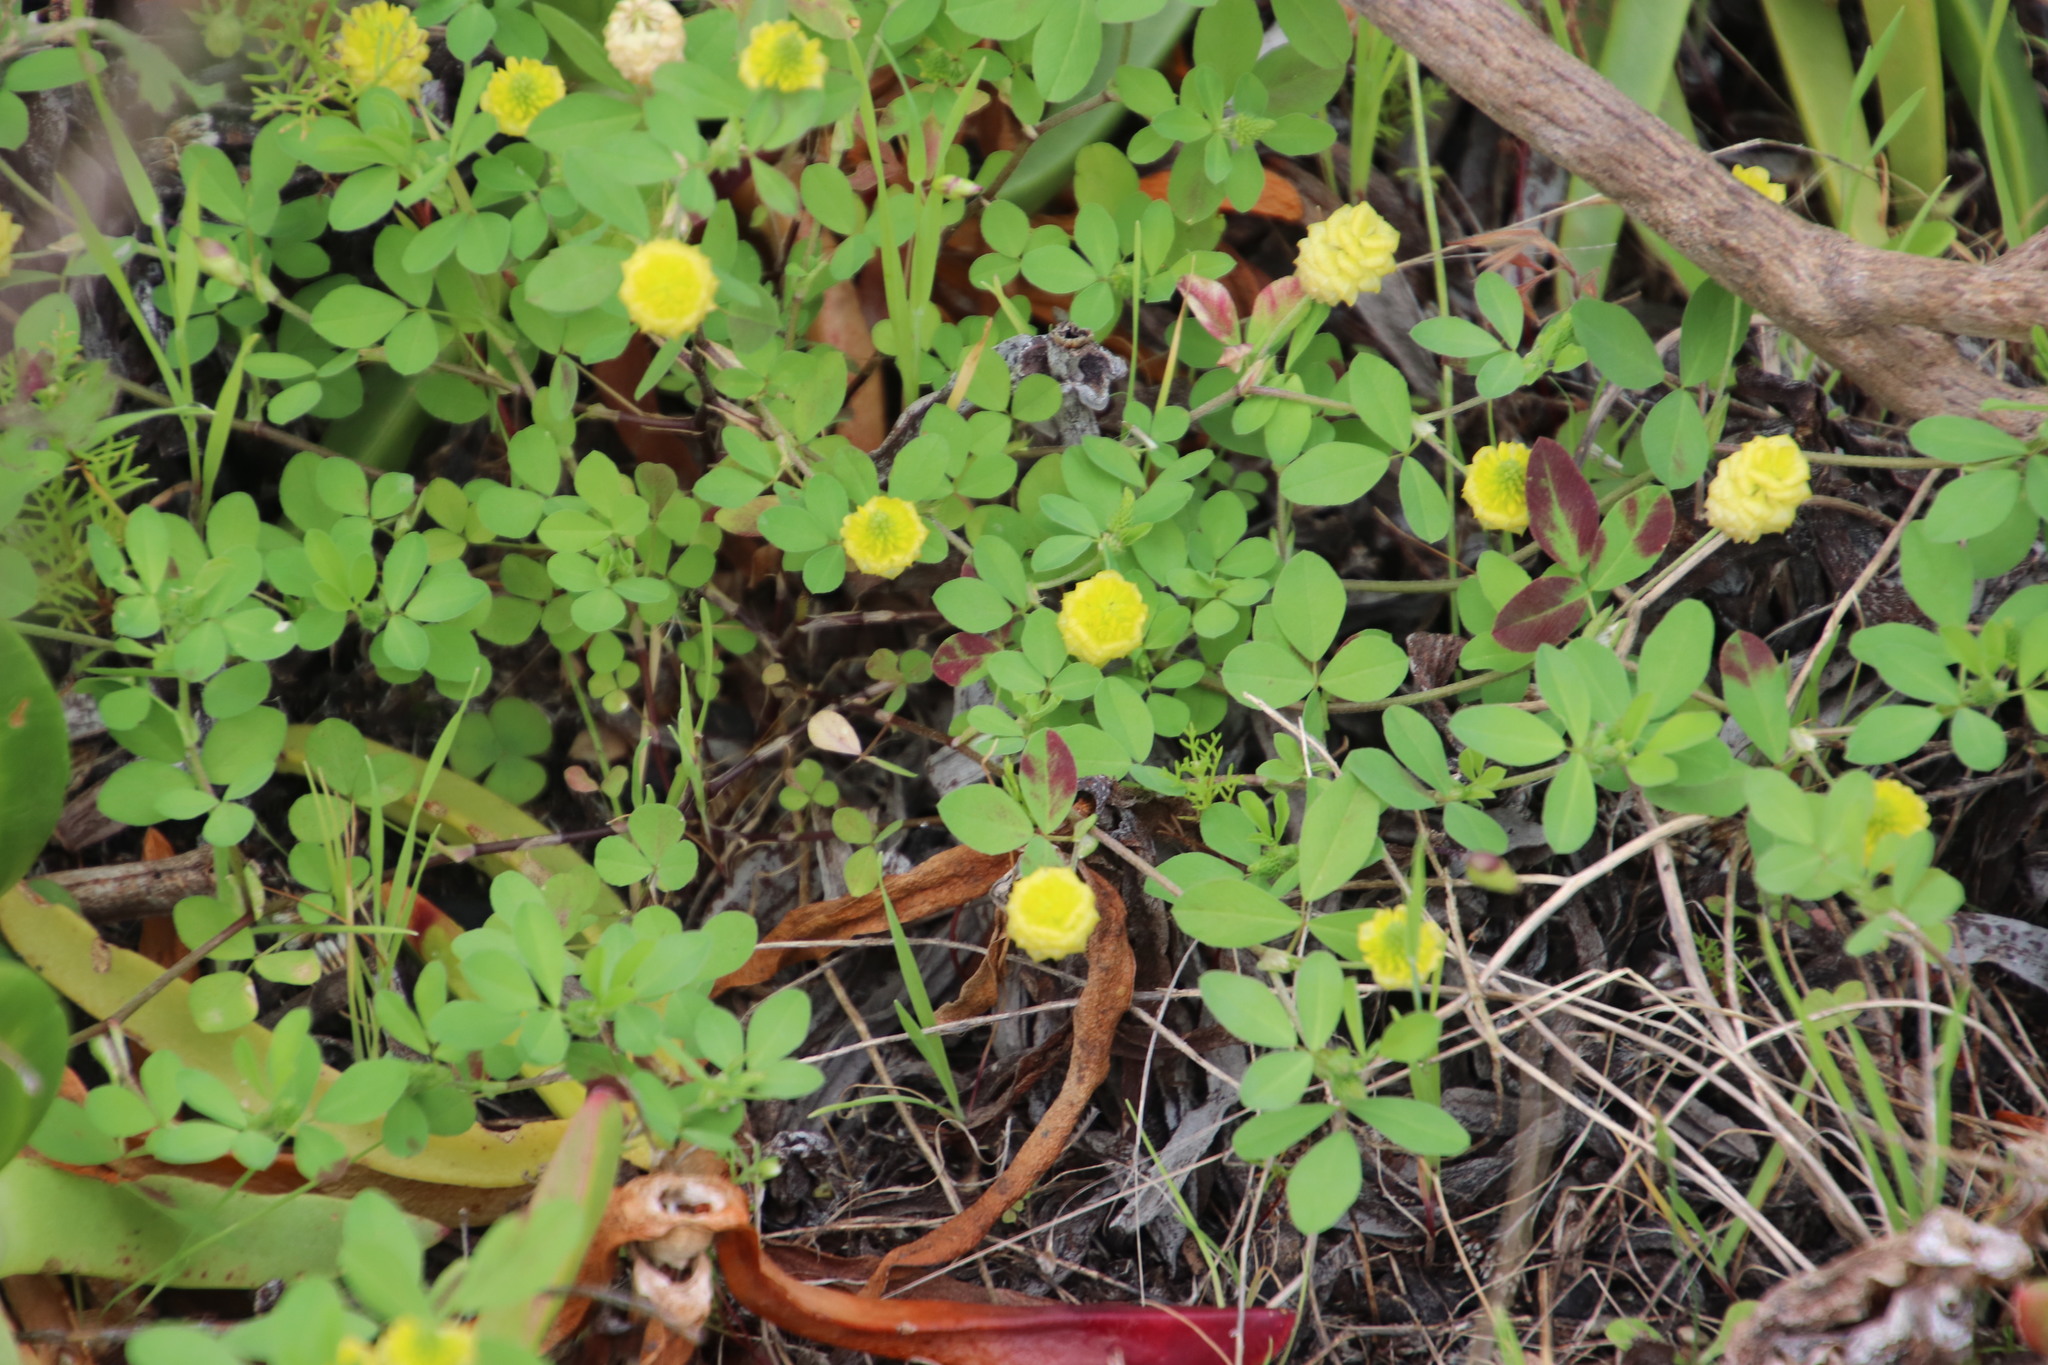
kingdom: Plantae
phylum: Tracheophyta
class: Magnoliopsida
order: Fabales
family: Fabaceae
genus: Trifolium
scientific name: Trifolium campestre
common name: Field clover
